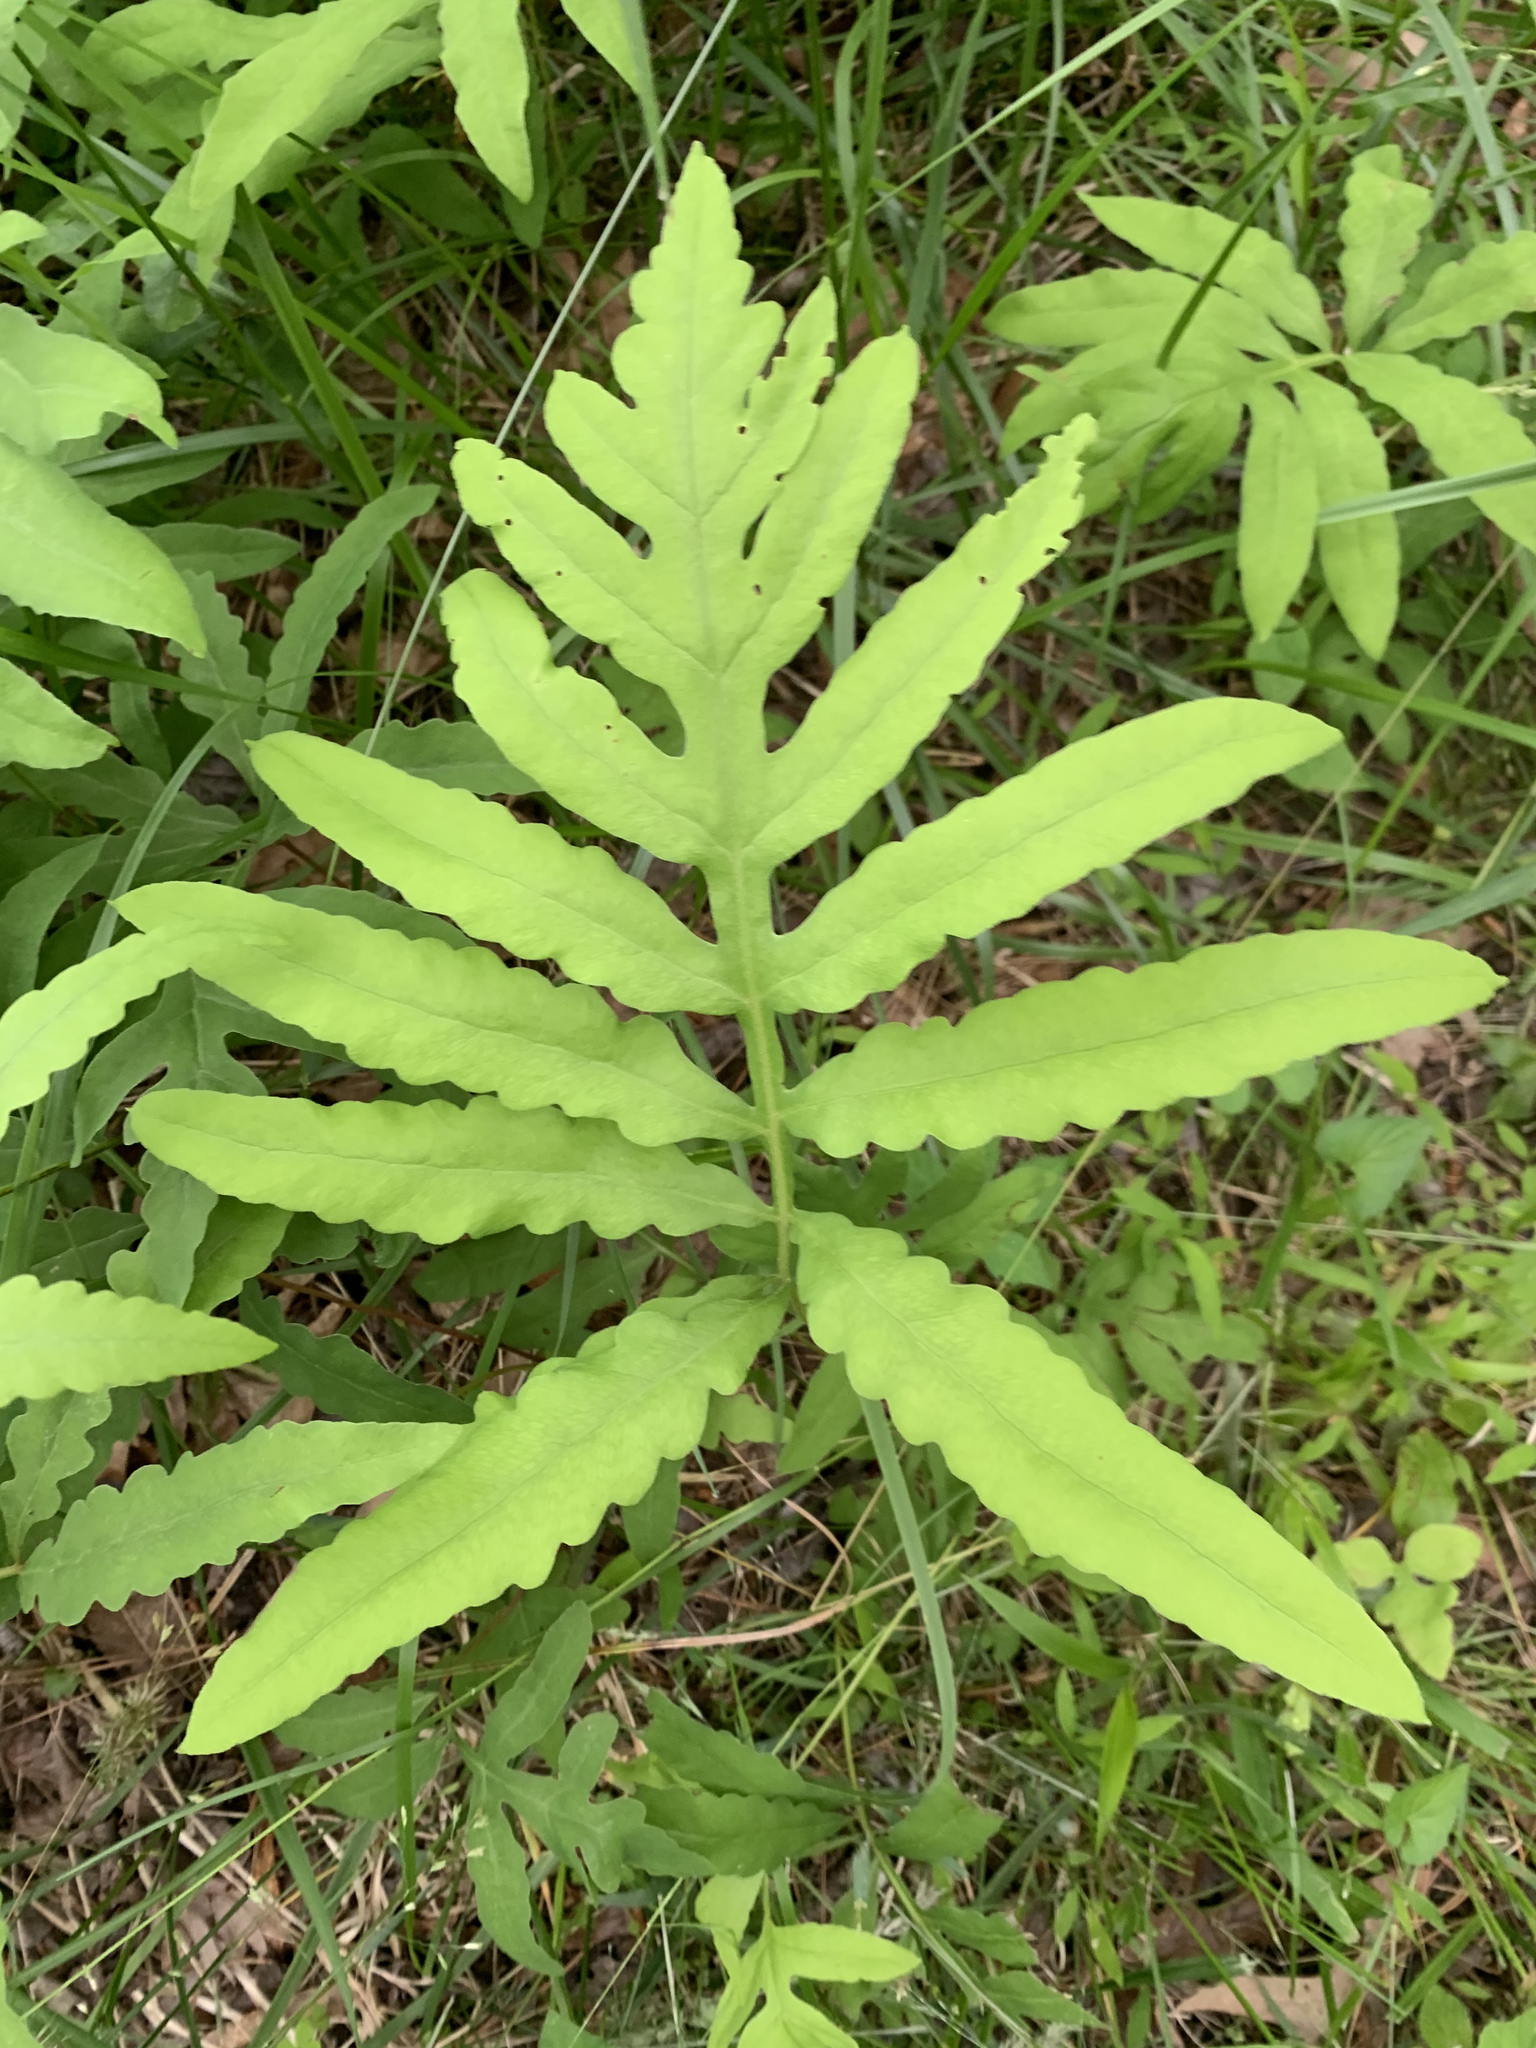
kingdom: Plantae
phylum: Tracheophyta
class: Polypodiopsida
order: Polypodiales
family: Onocleaceae
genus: Onoclea
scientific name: Onoclea sensibilis
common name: Sensitive fern
